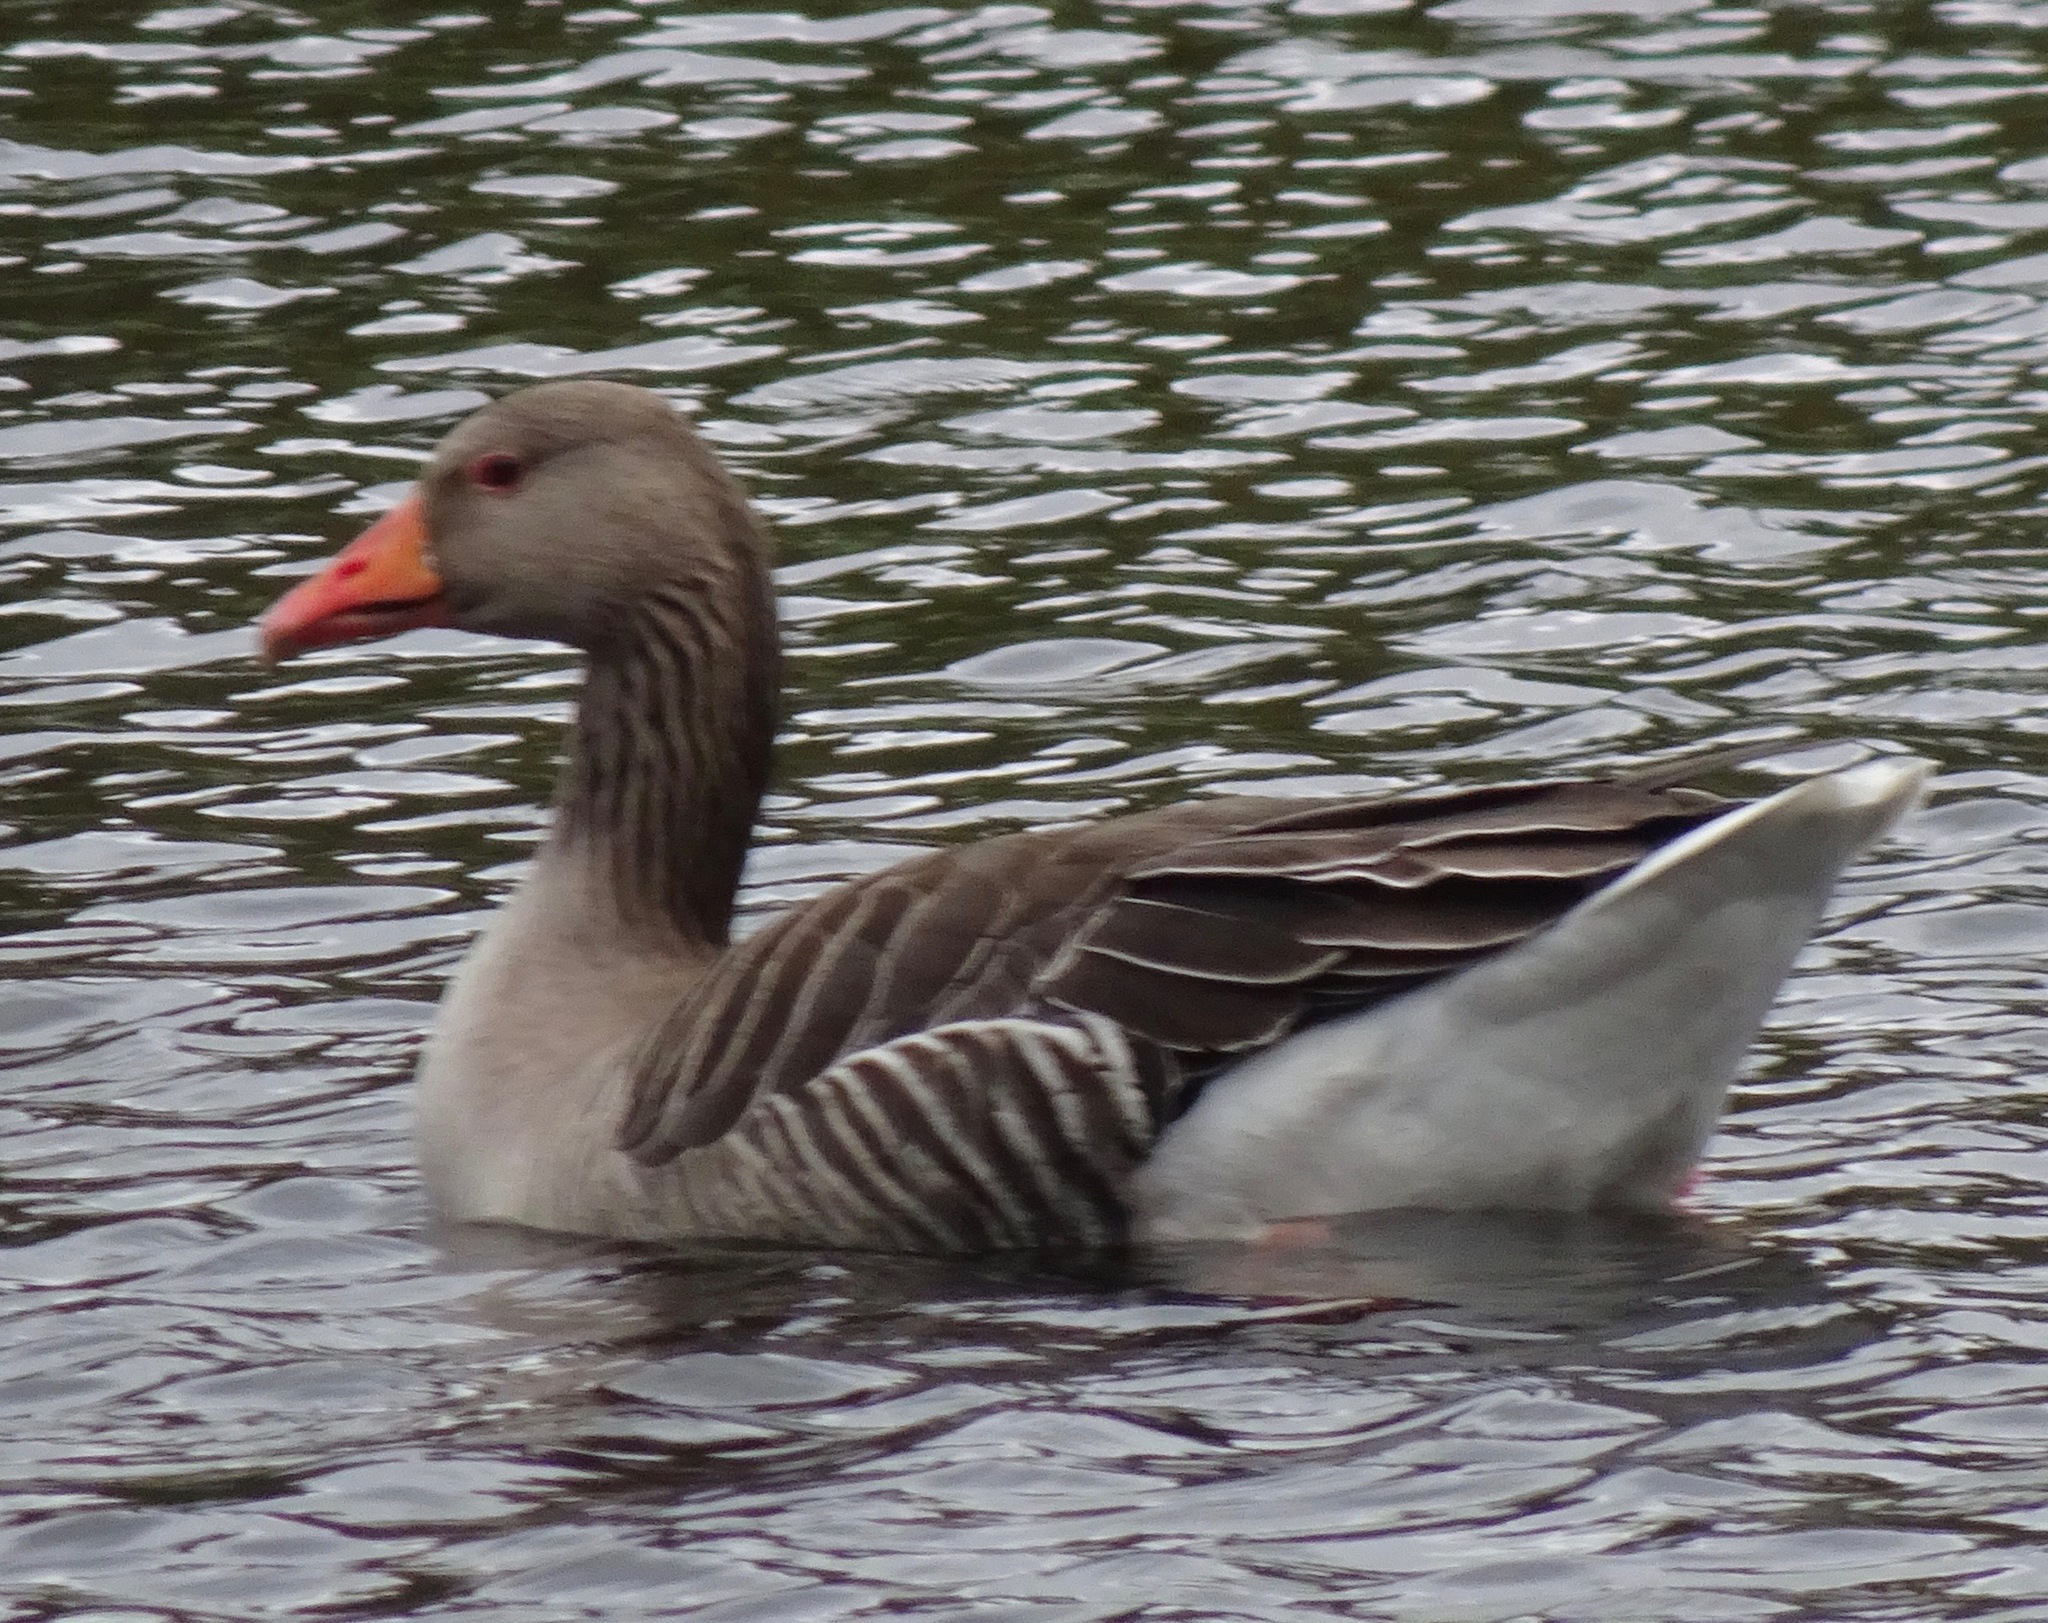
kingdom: Animalia
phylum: Chordata
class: Aves
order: Anseriformes
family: Anatidae
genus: Anser
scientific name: Anser anser
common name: Greylag goose
